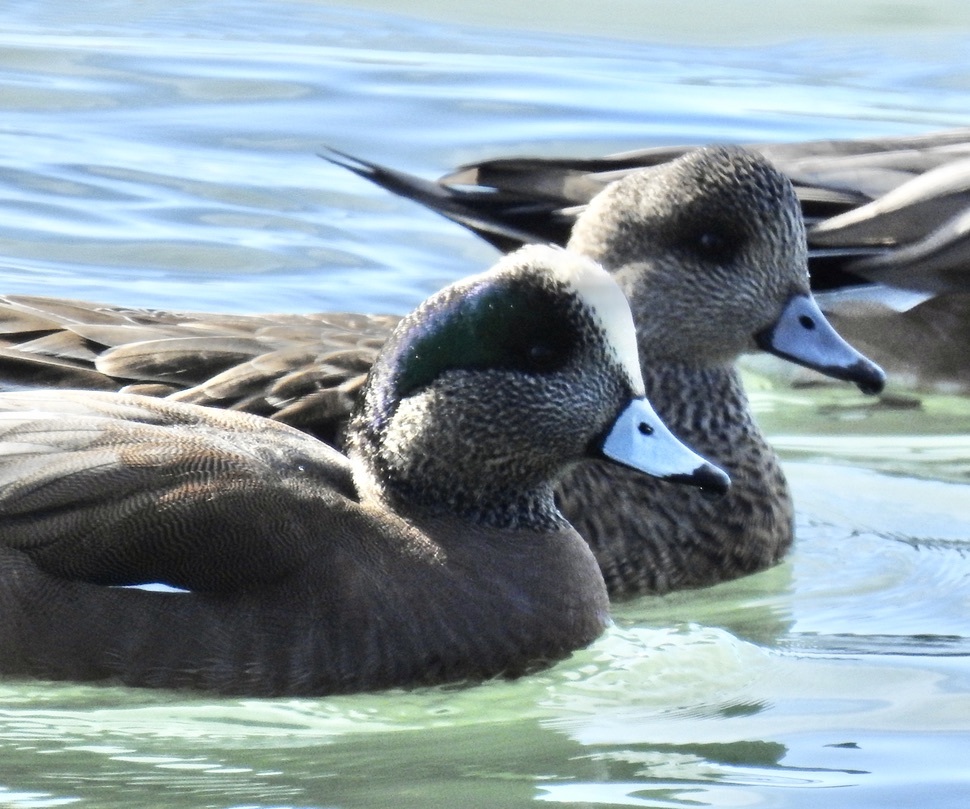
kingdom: Animalia
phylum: Chordata
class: Aves
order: Anseriformes
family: Anatidae
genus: Mareca
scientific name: Mareca americana
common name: American wigeon
